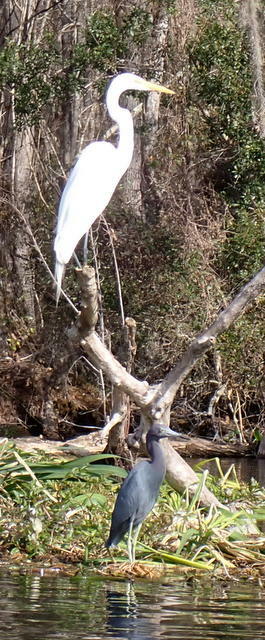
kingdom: Animalia
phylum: Chordata
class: Aves
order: Pelecaniformes
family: Ardeidae
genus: Egretta
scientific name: Egretta caerulea
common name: Little blue heron
